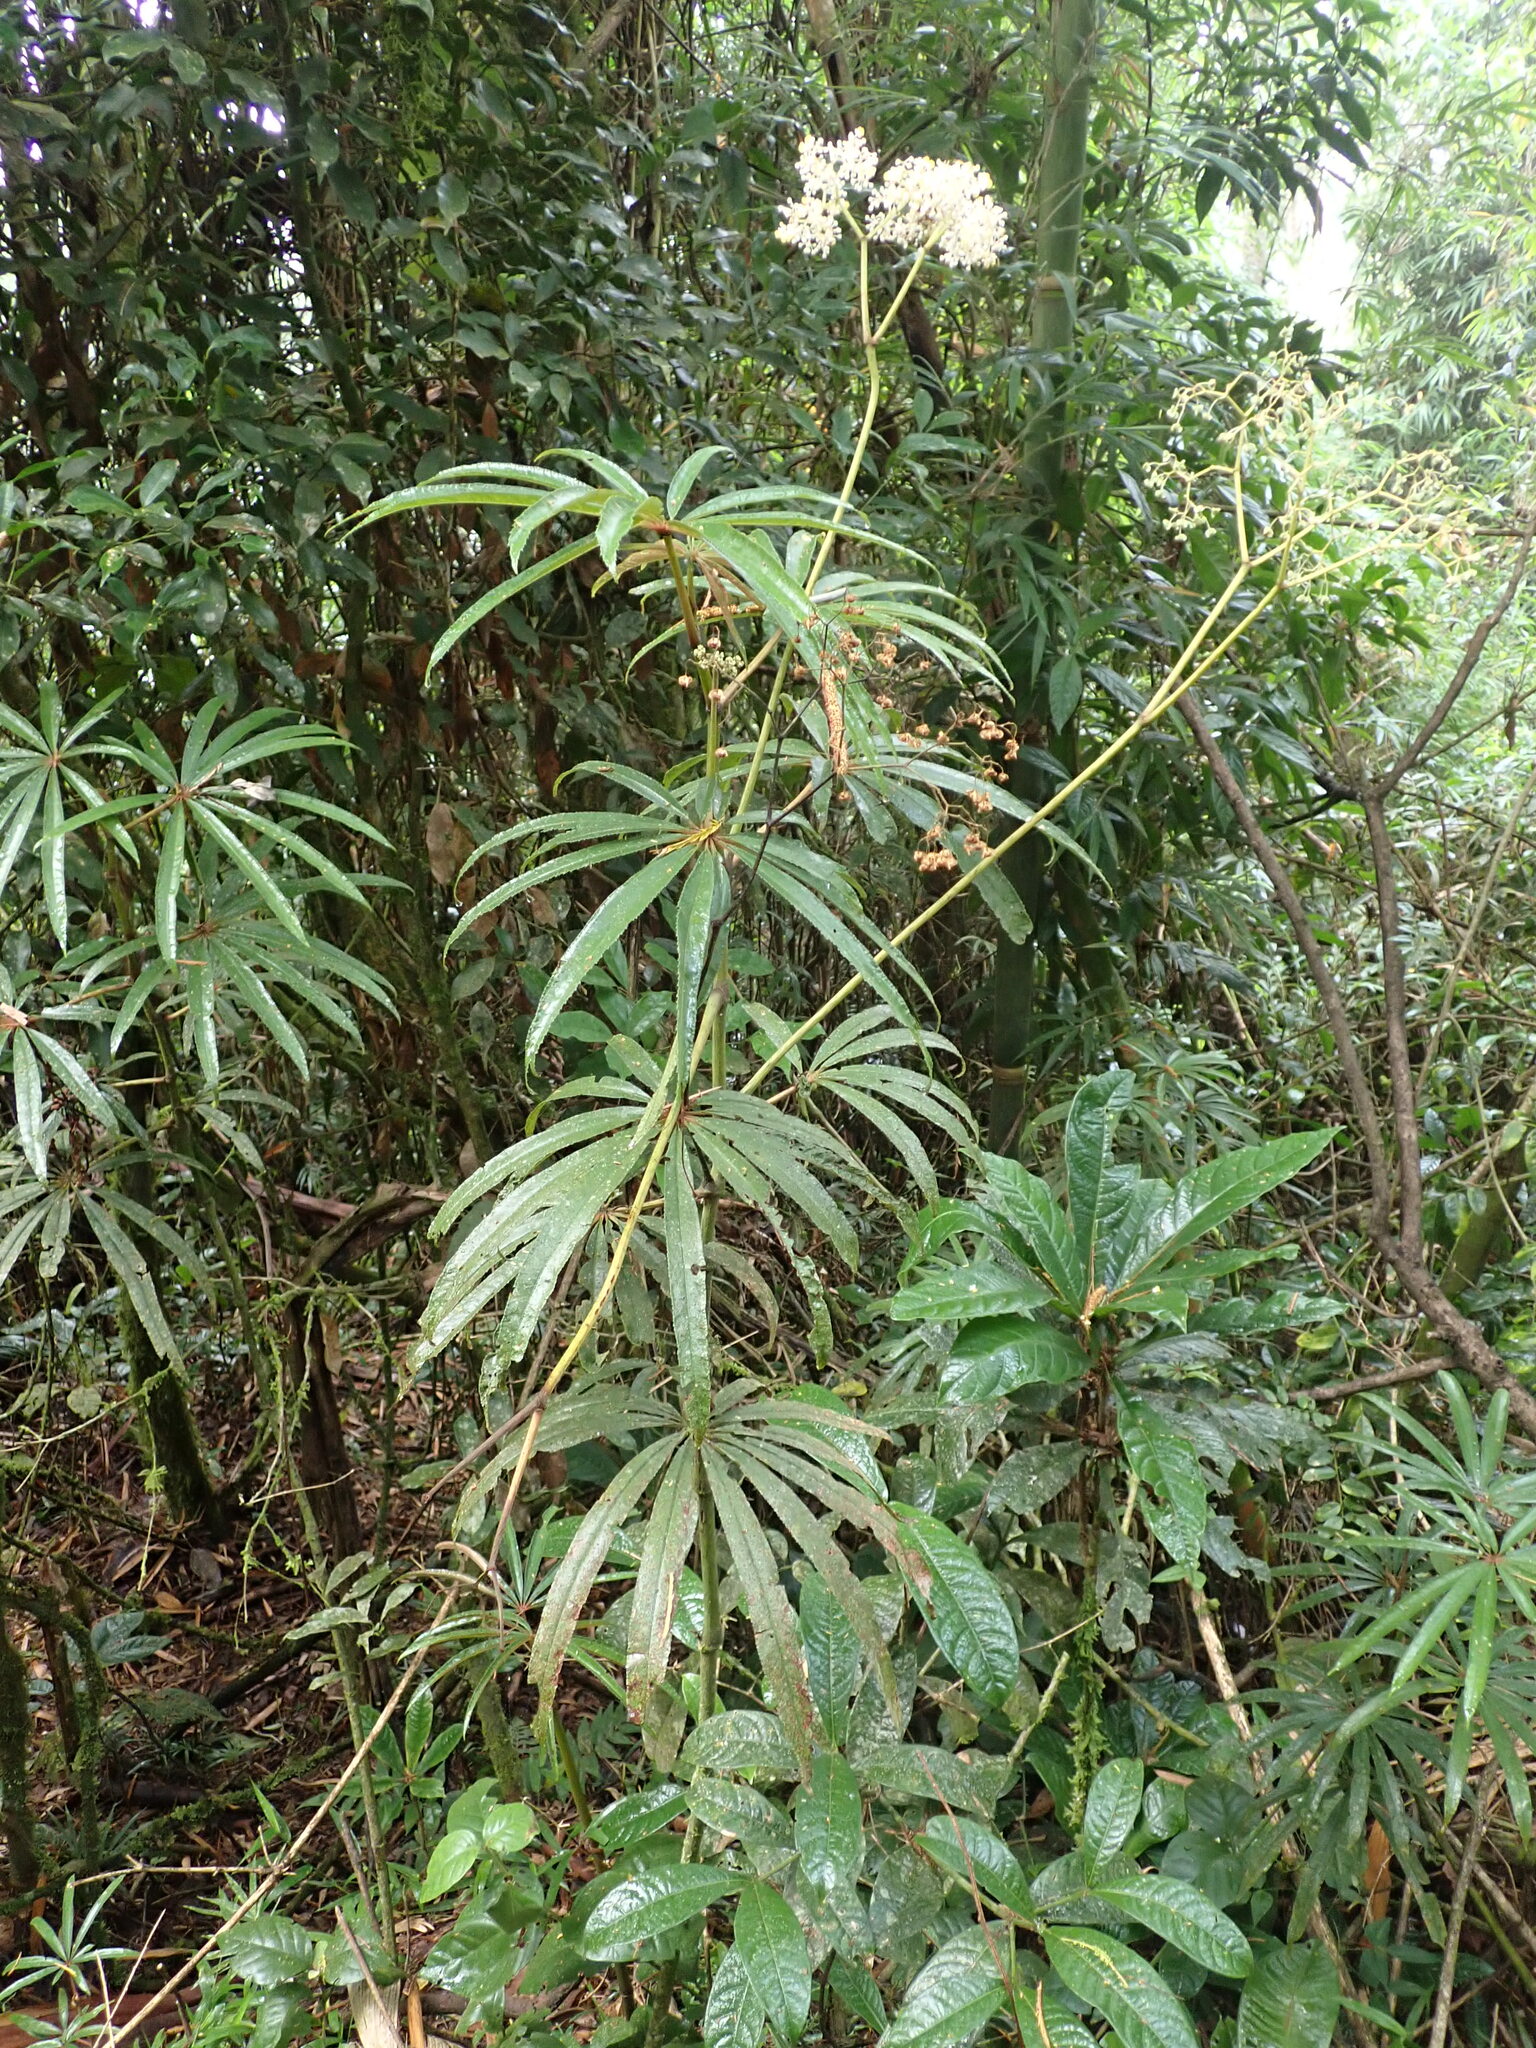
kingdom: Plantae
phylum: Tracheophyta
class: Magnoliopsida
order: Cucurbitales
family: Begoniaceae
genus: Begonia
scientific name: Begonia luxurians
